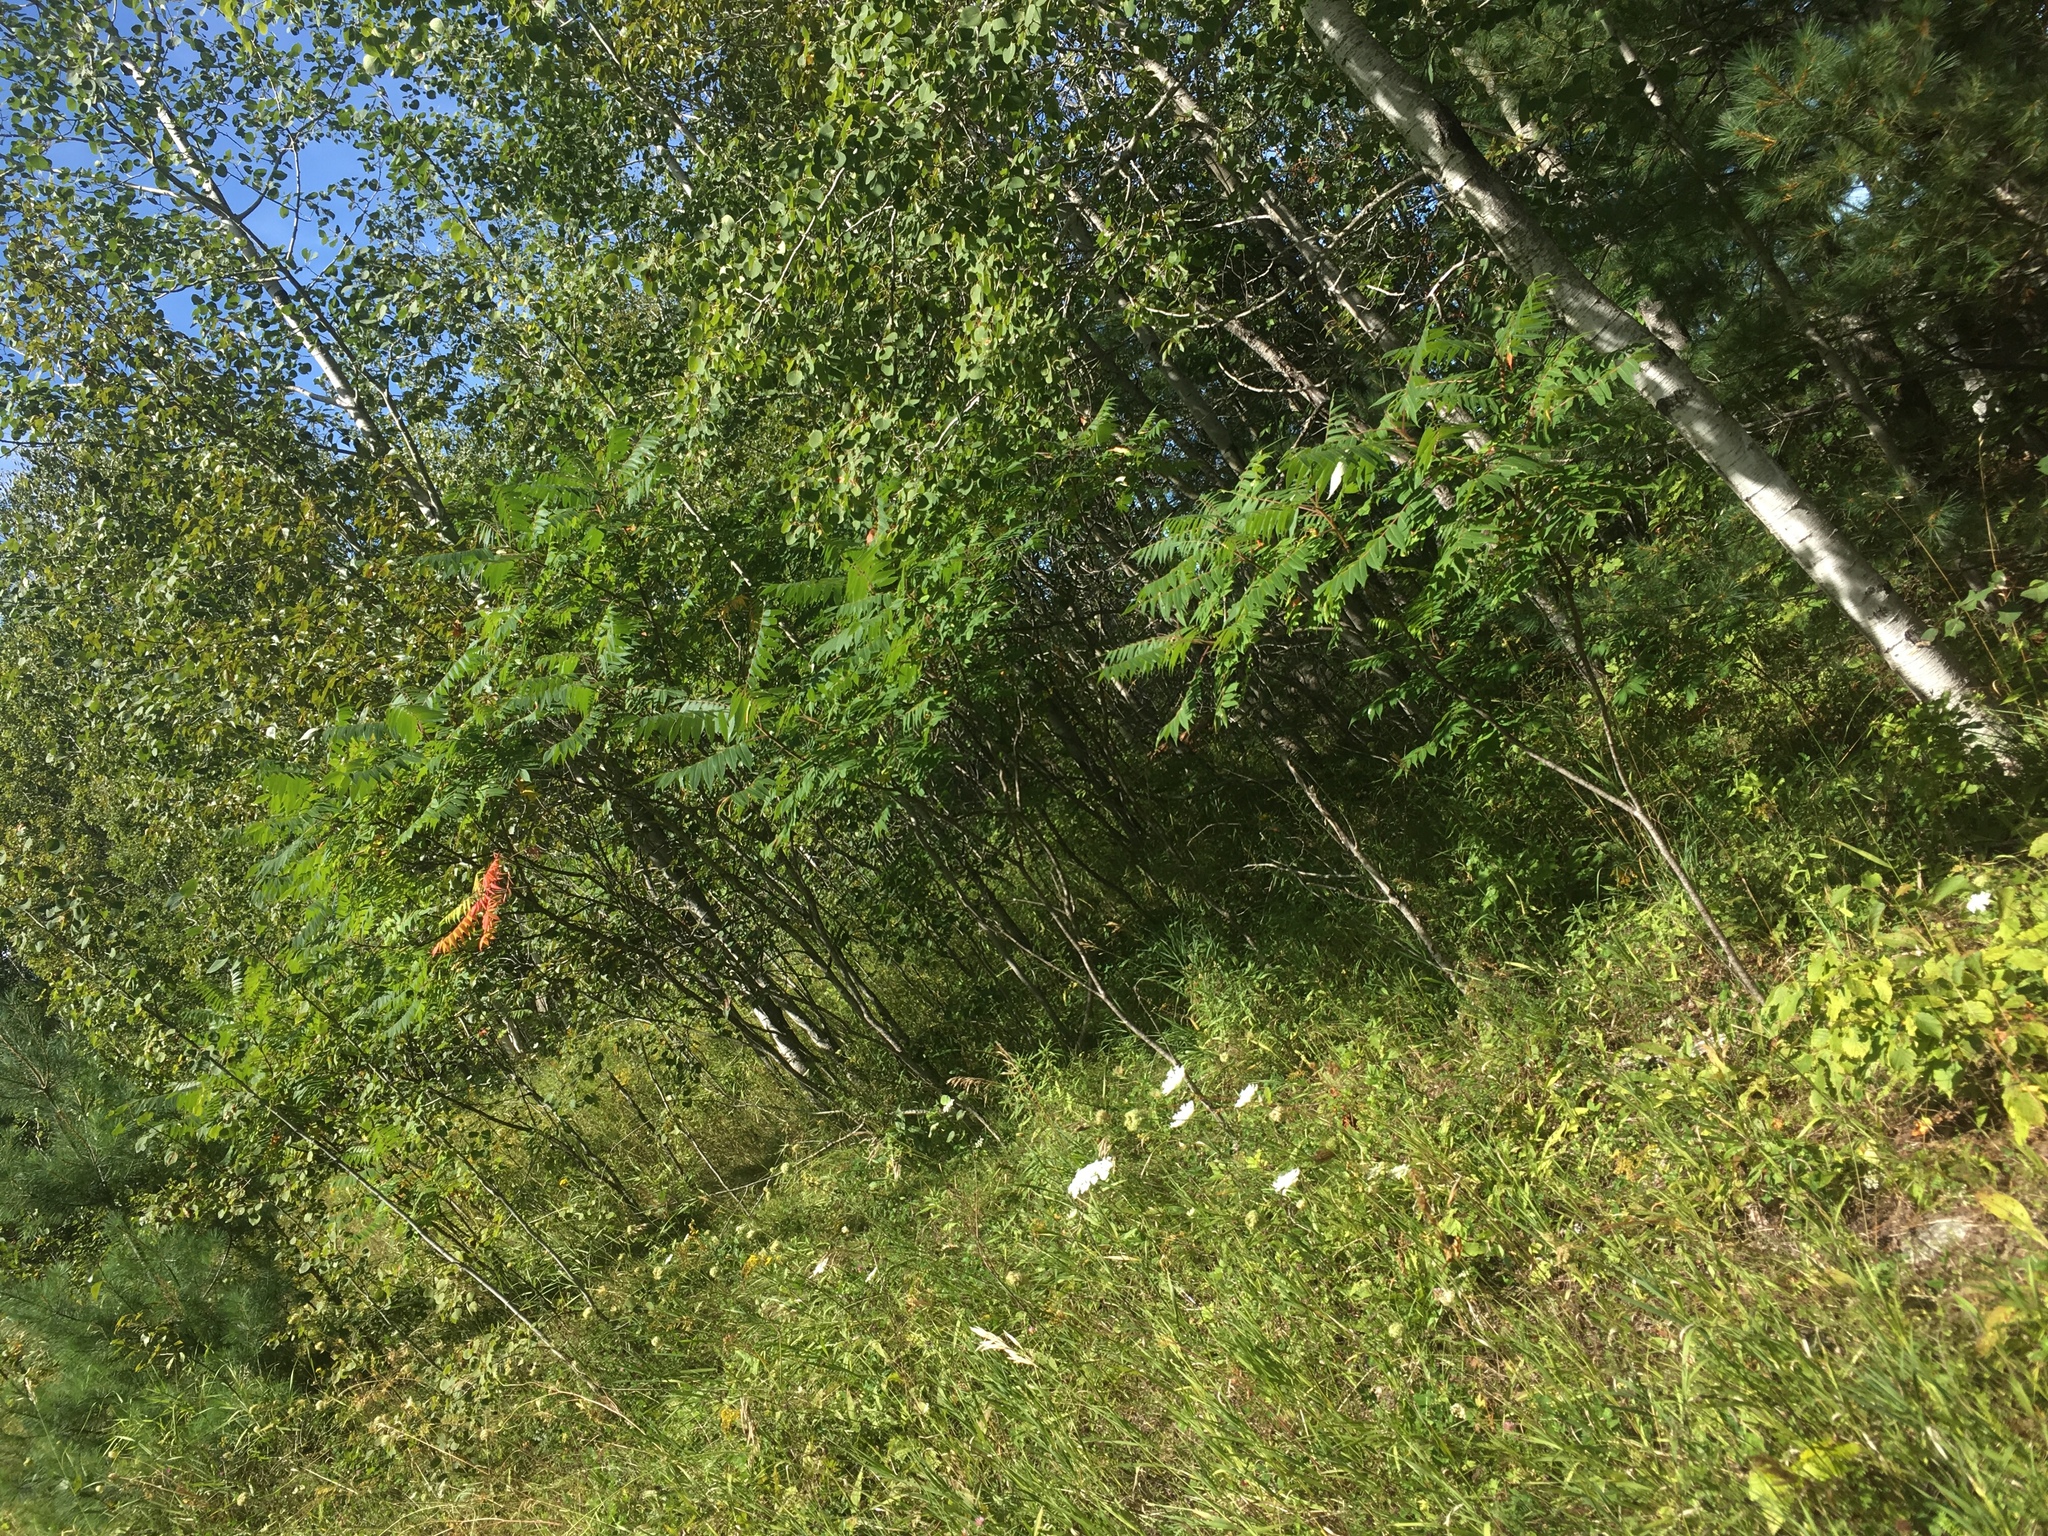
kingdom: Plantae
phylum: Tracheophyta
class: Magnoliopsida
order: Sapindales
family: Anacardiaceae
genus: Rhus
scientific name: Rhus typhina
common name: Staghorn sumac
